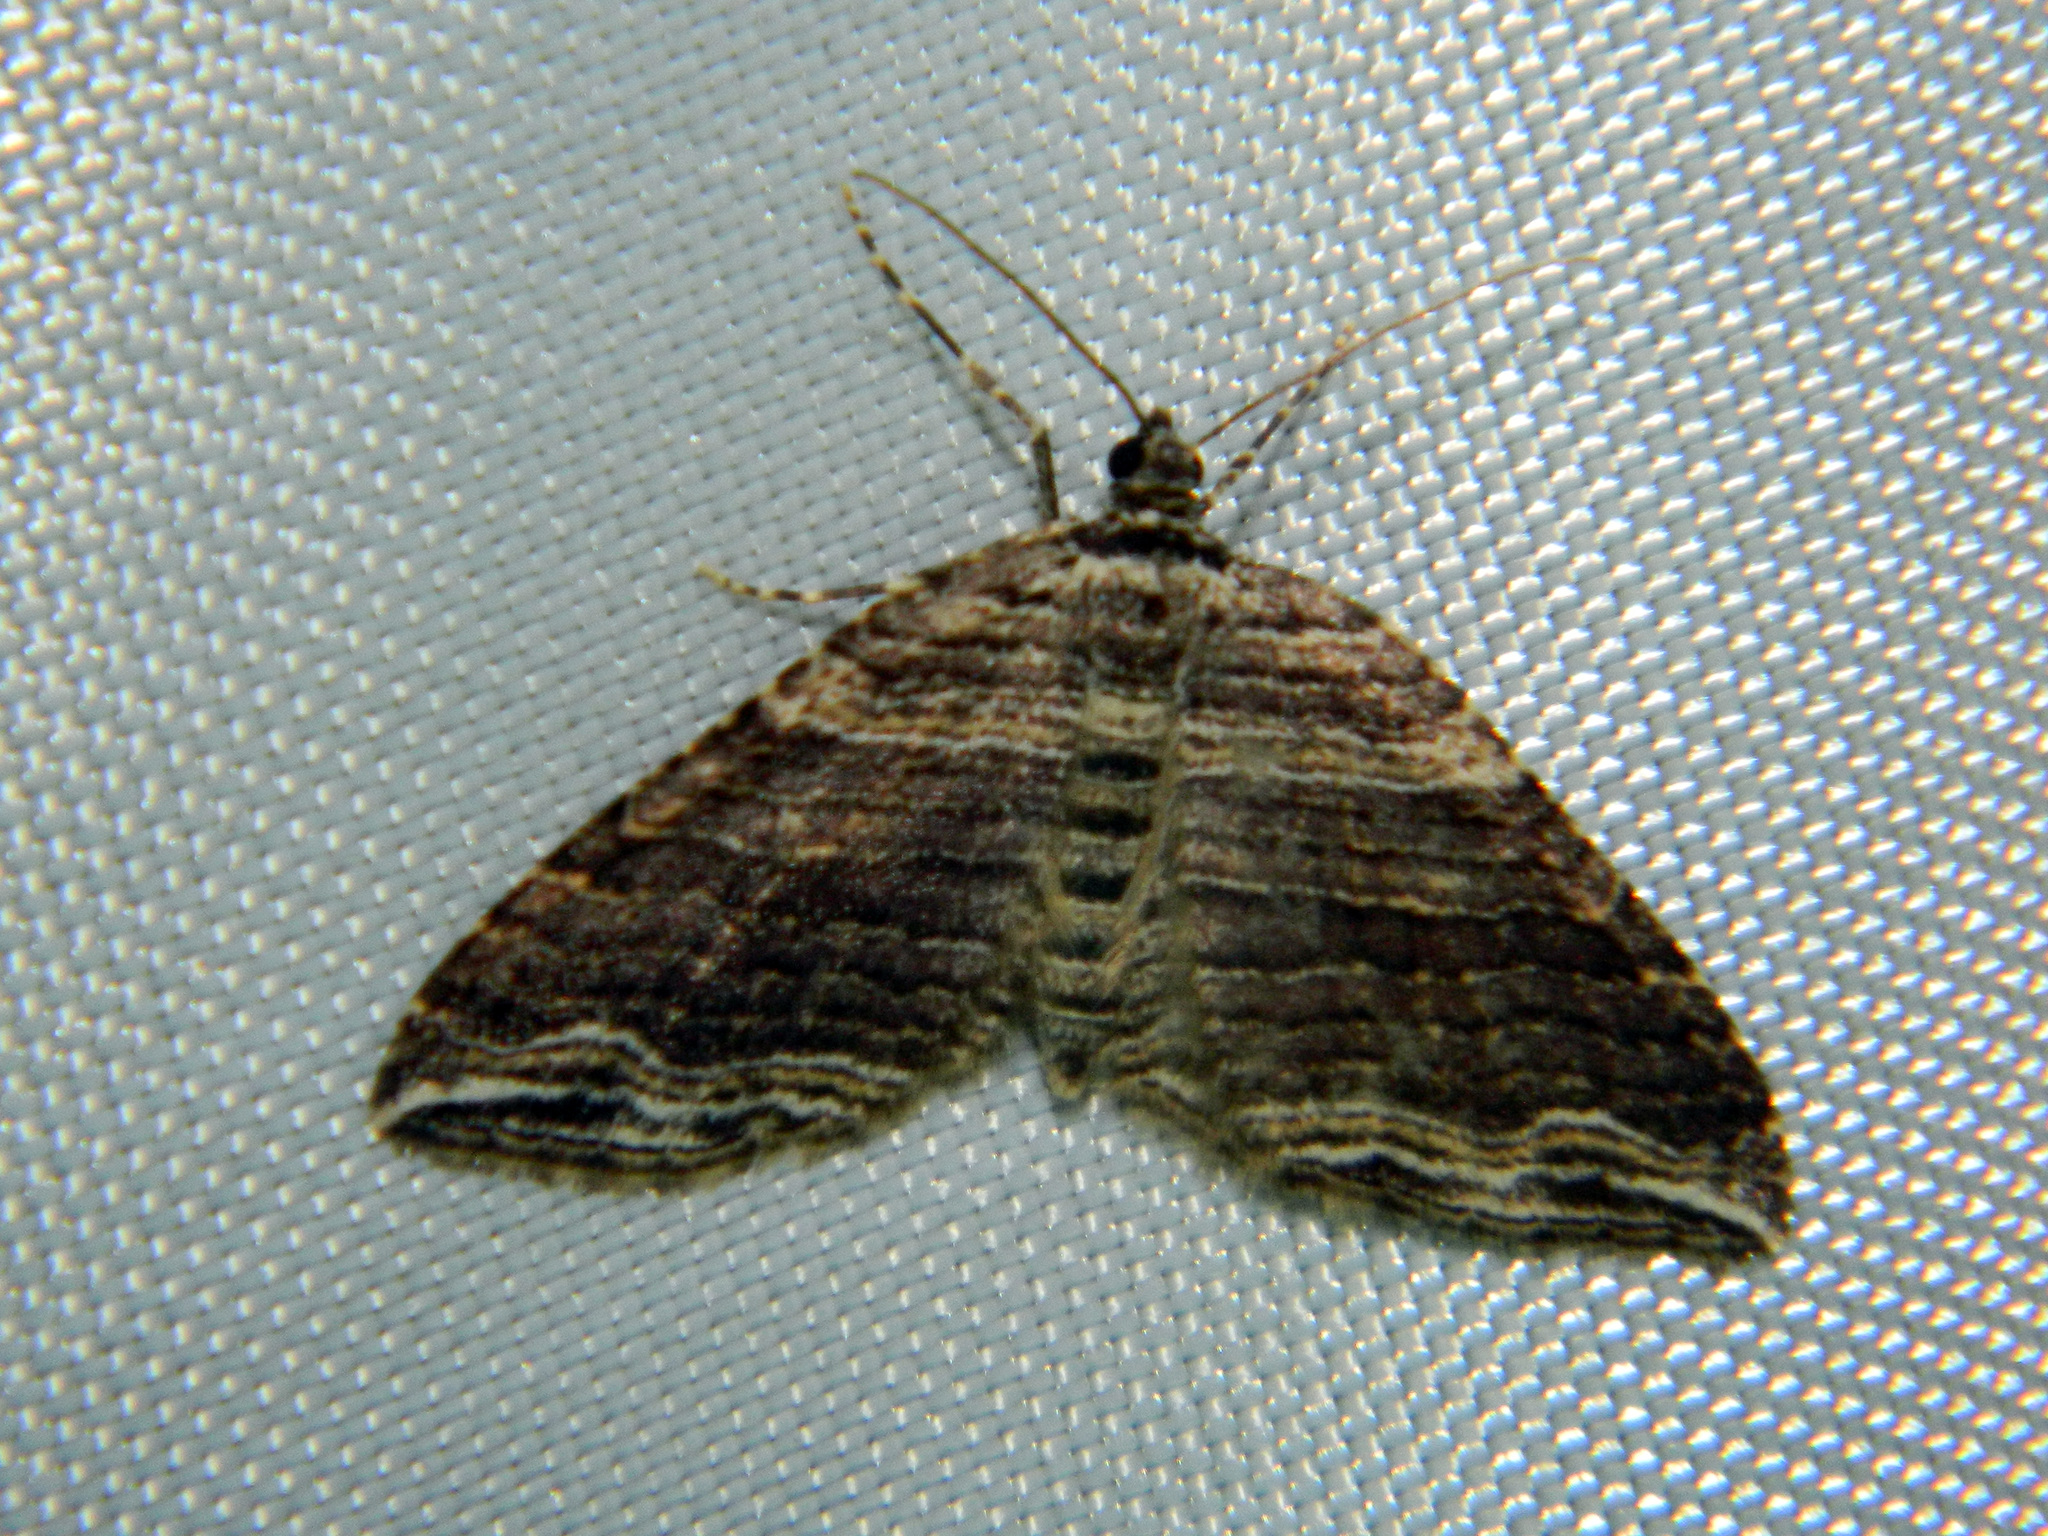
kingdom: Animalia
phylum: Arthropoda
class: Insecta
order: Lepidoptera
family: Geometridae
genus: Anticlea
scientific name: Anticlea multiferata
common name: Many-lined carpet
